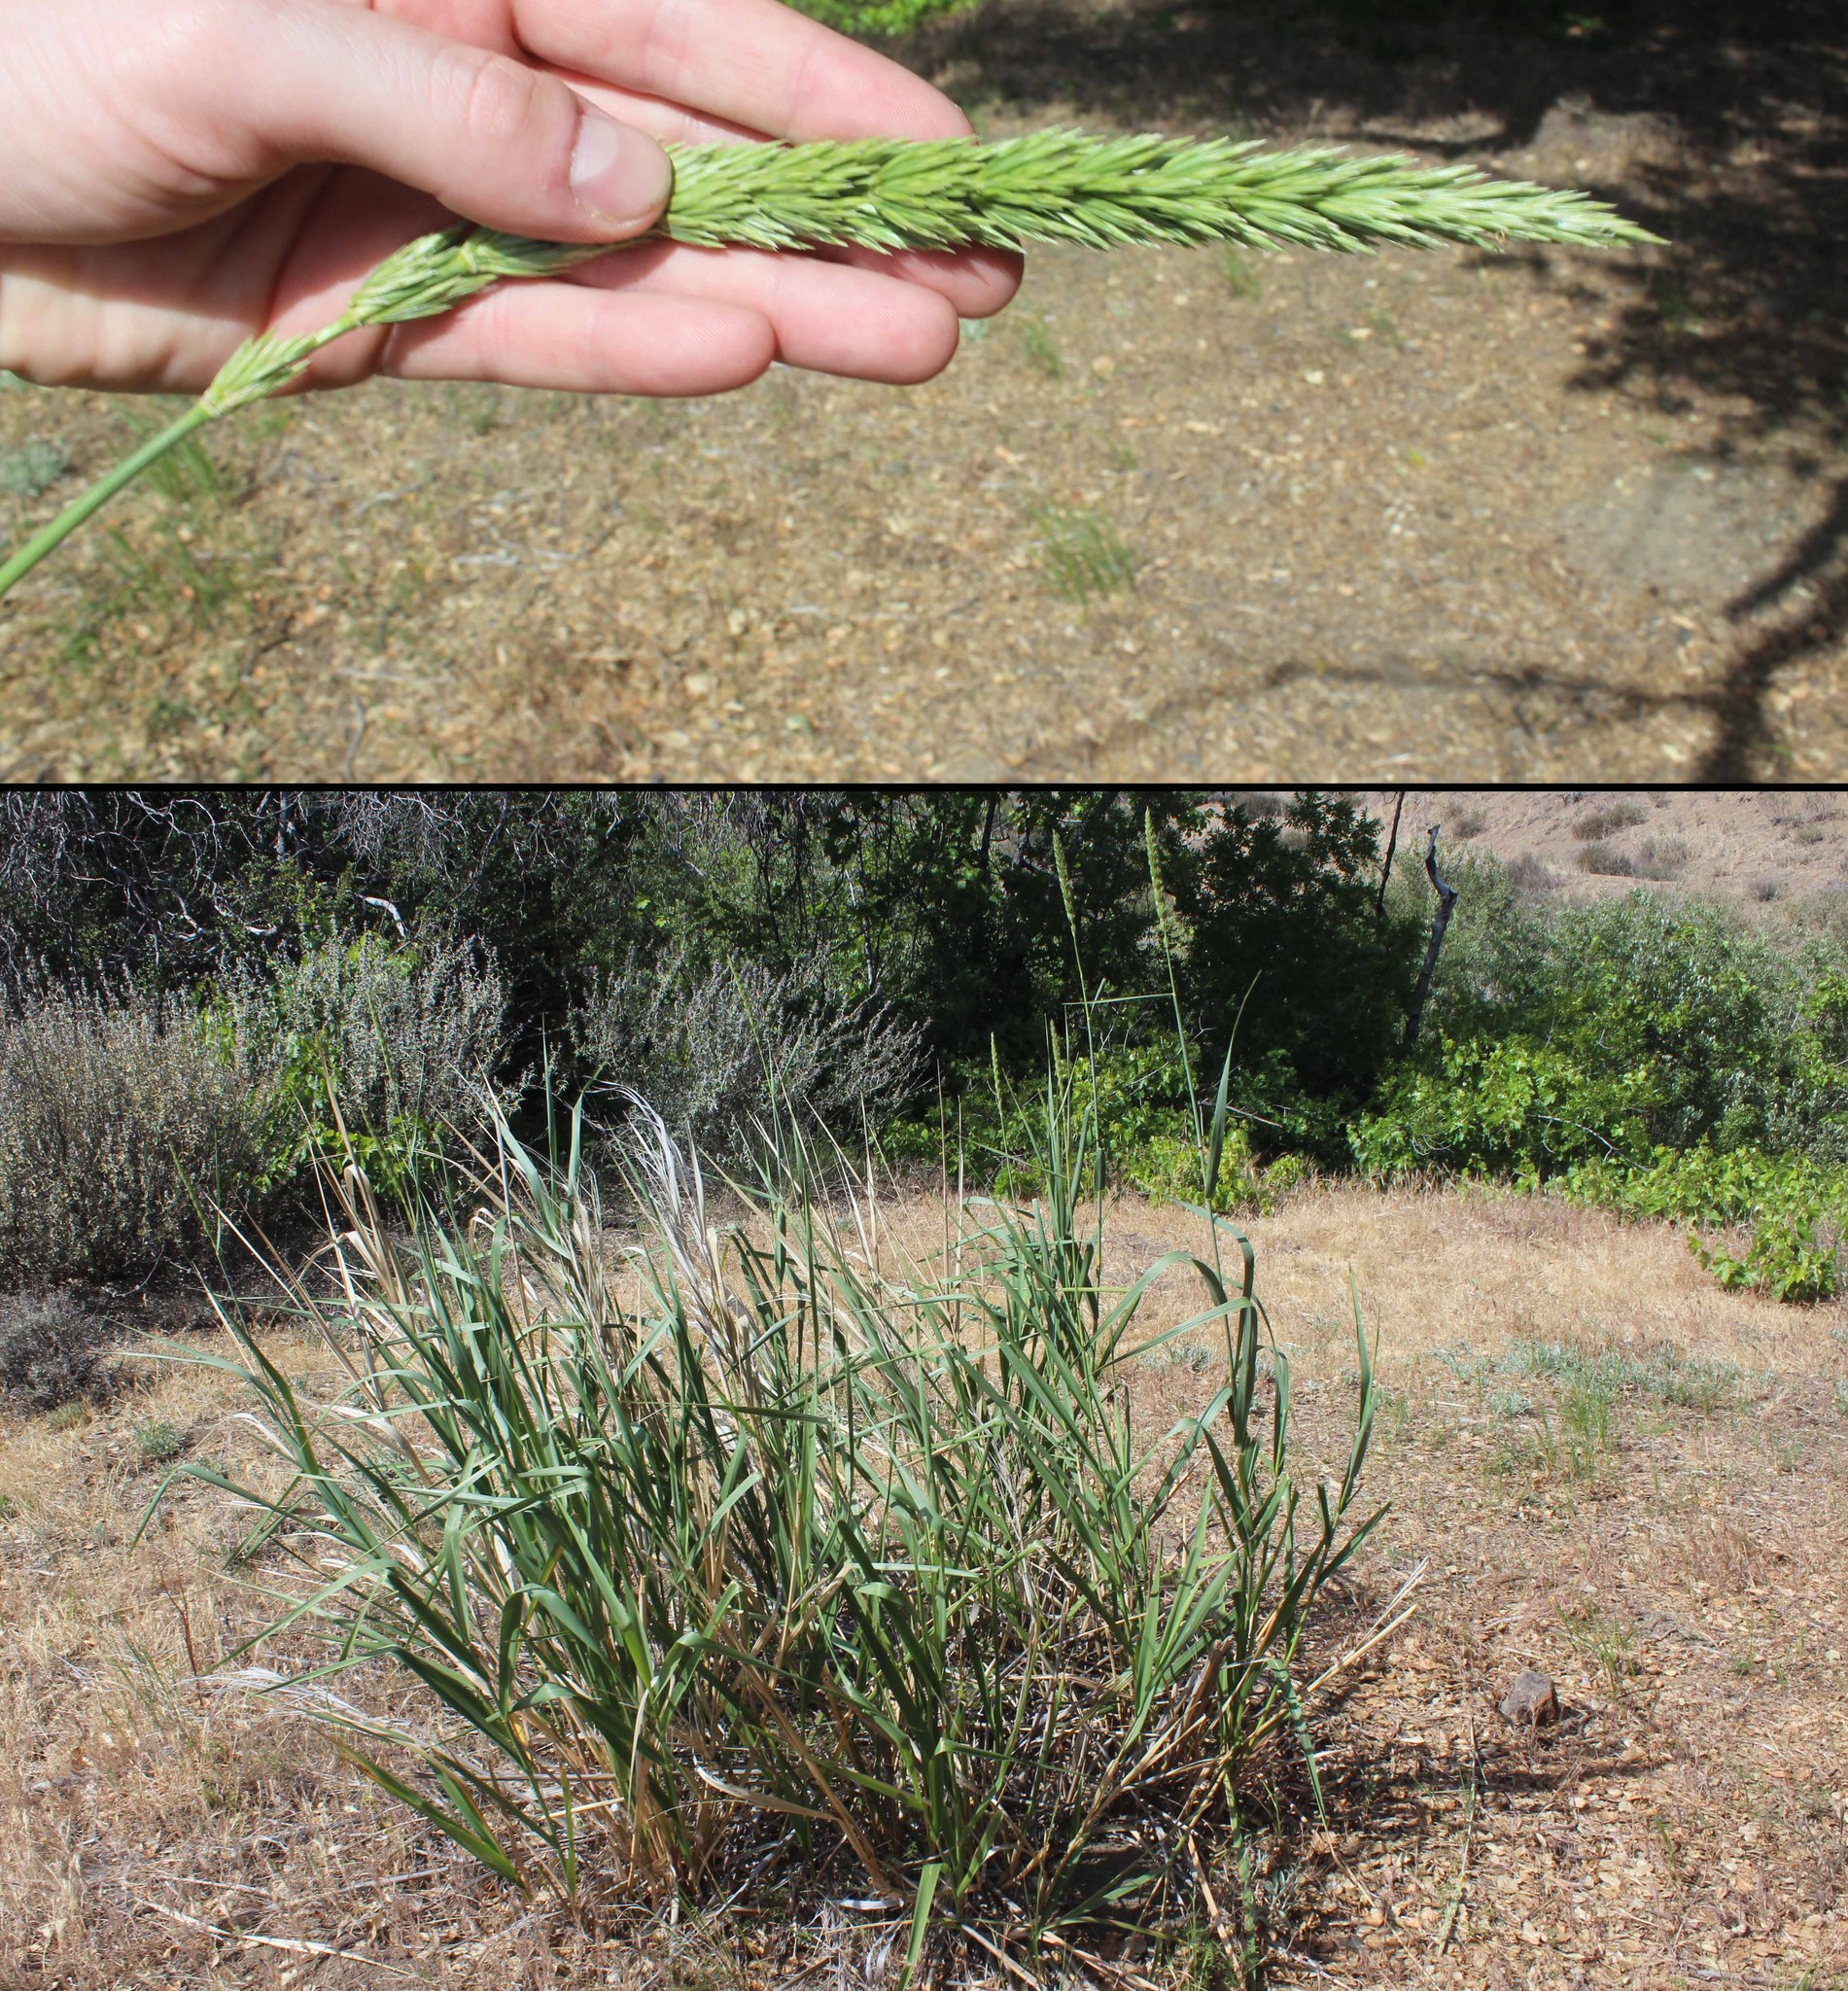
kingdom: Plantae
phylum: Tracheophyta
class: Liliopsida
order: Poales
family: Poaceae
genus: Leymus
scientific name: Leymus condensatus
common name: Giant wild rye
